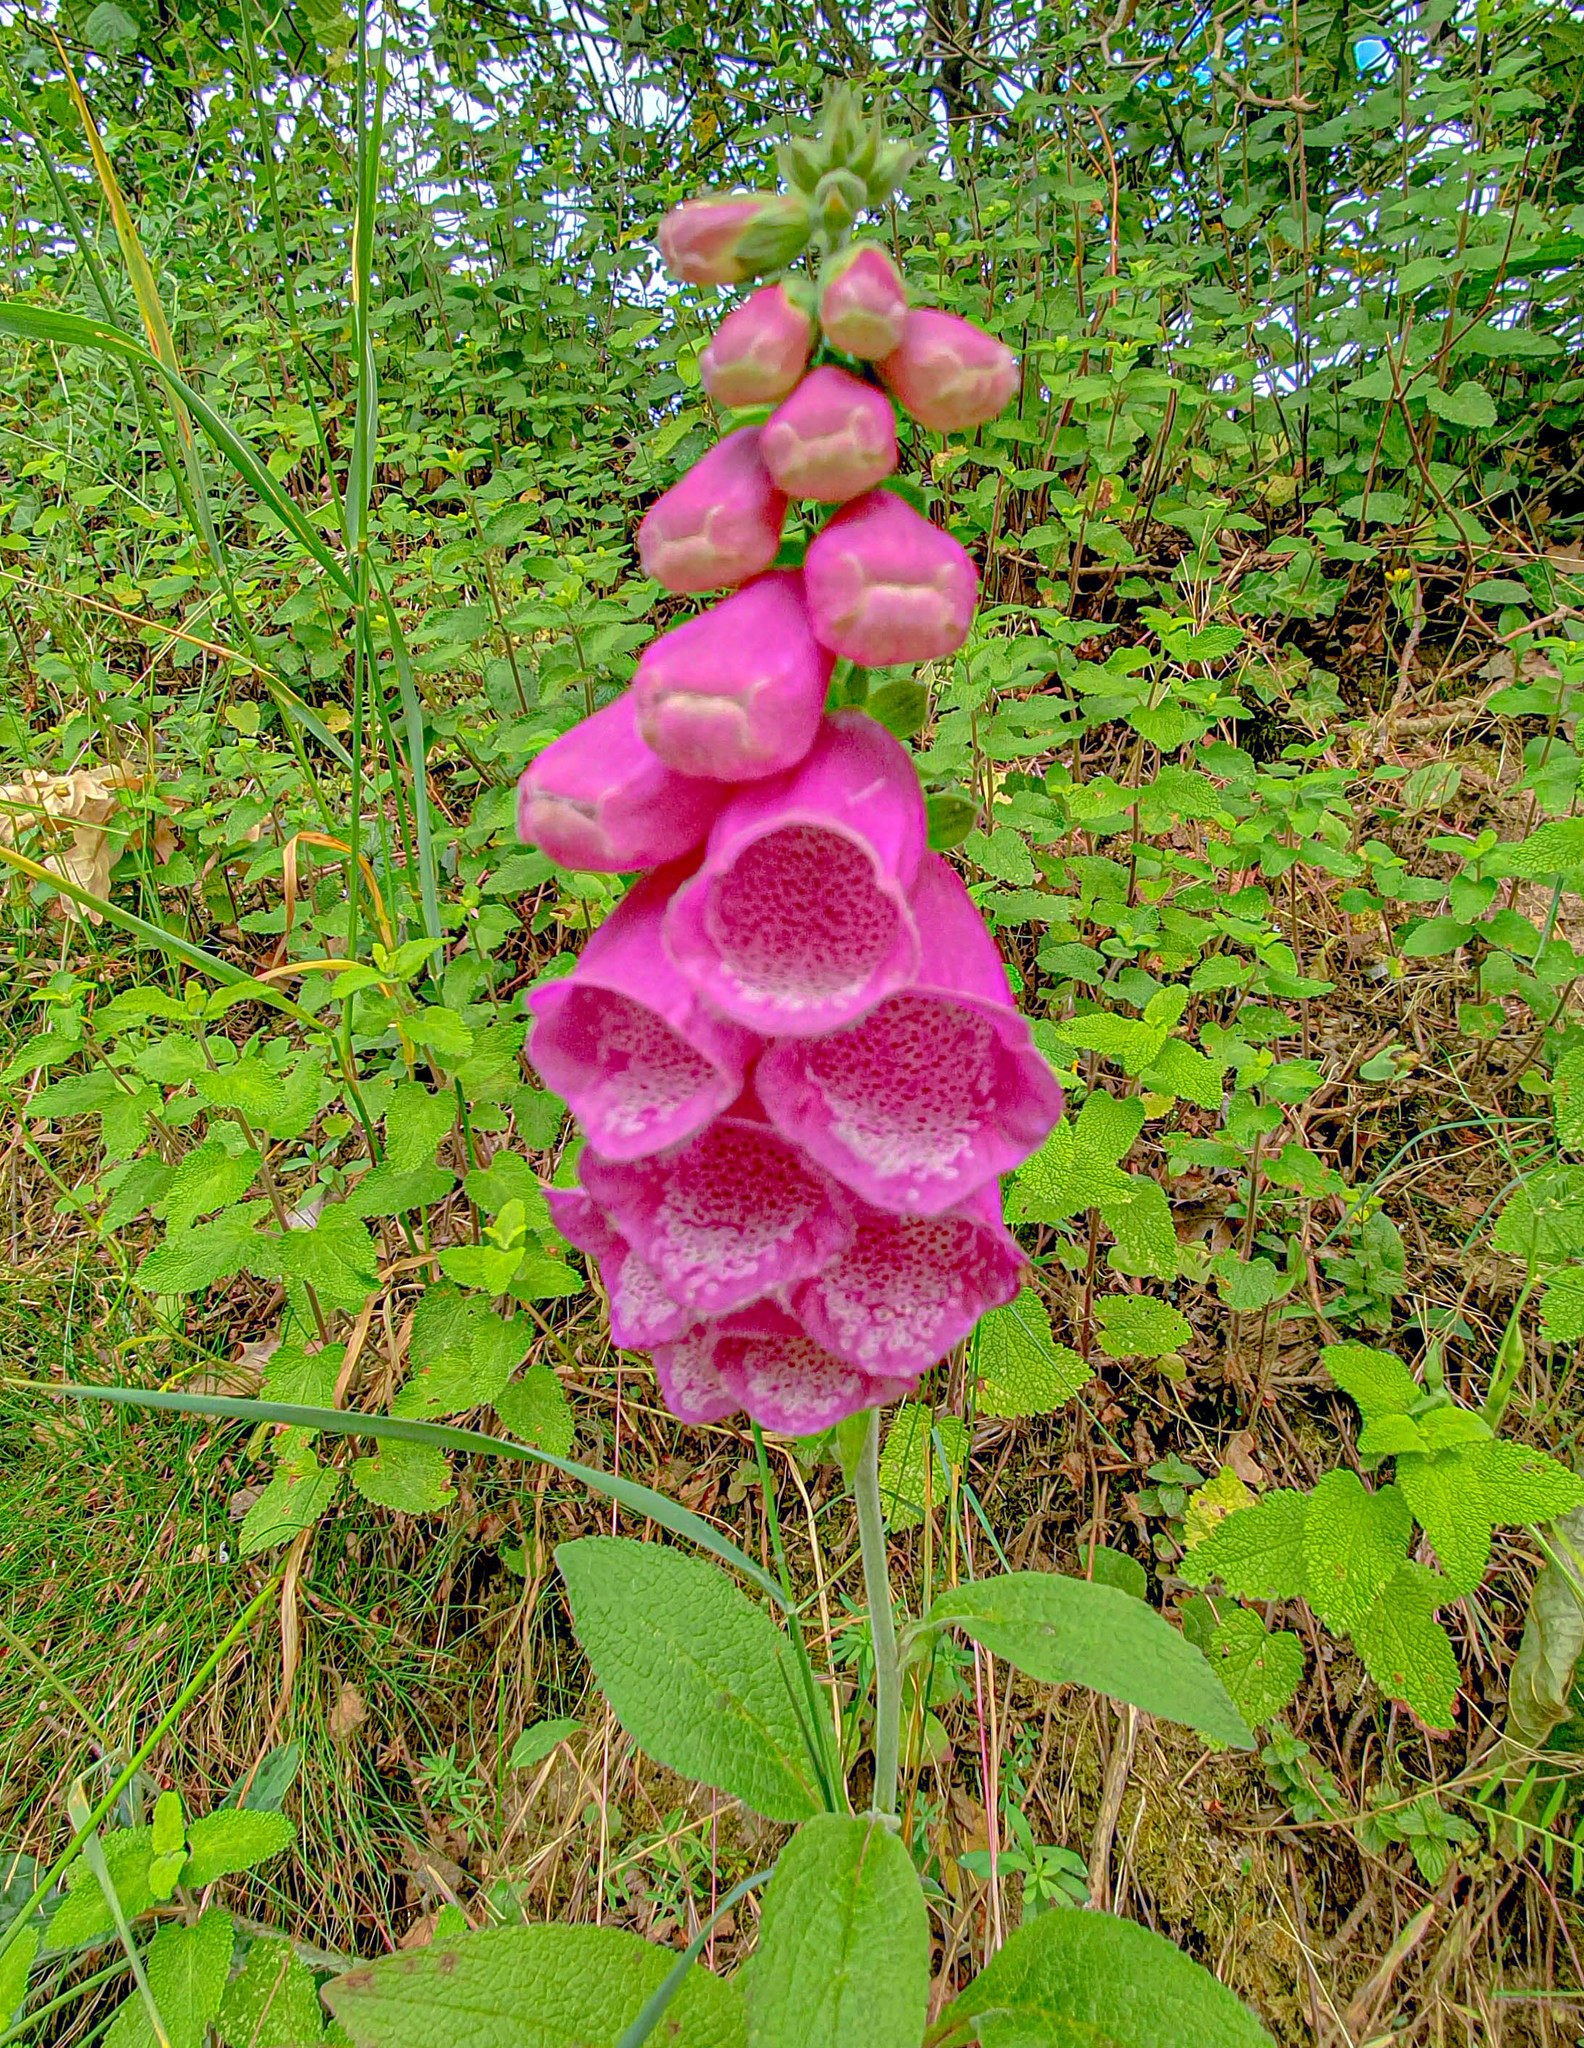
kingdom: Plantae
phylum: Tracheophyta
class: Magnoliopsida
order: Lamiales
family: Plantaginaceae
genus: Digitalis
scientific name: Digitalis purpurea
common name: Foxglove
